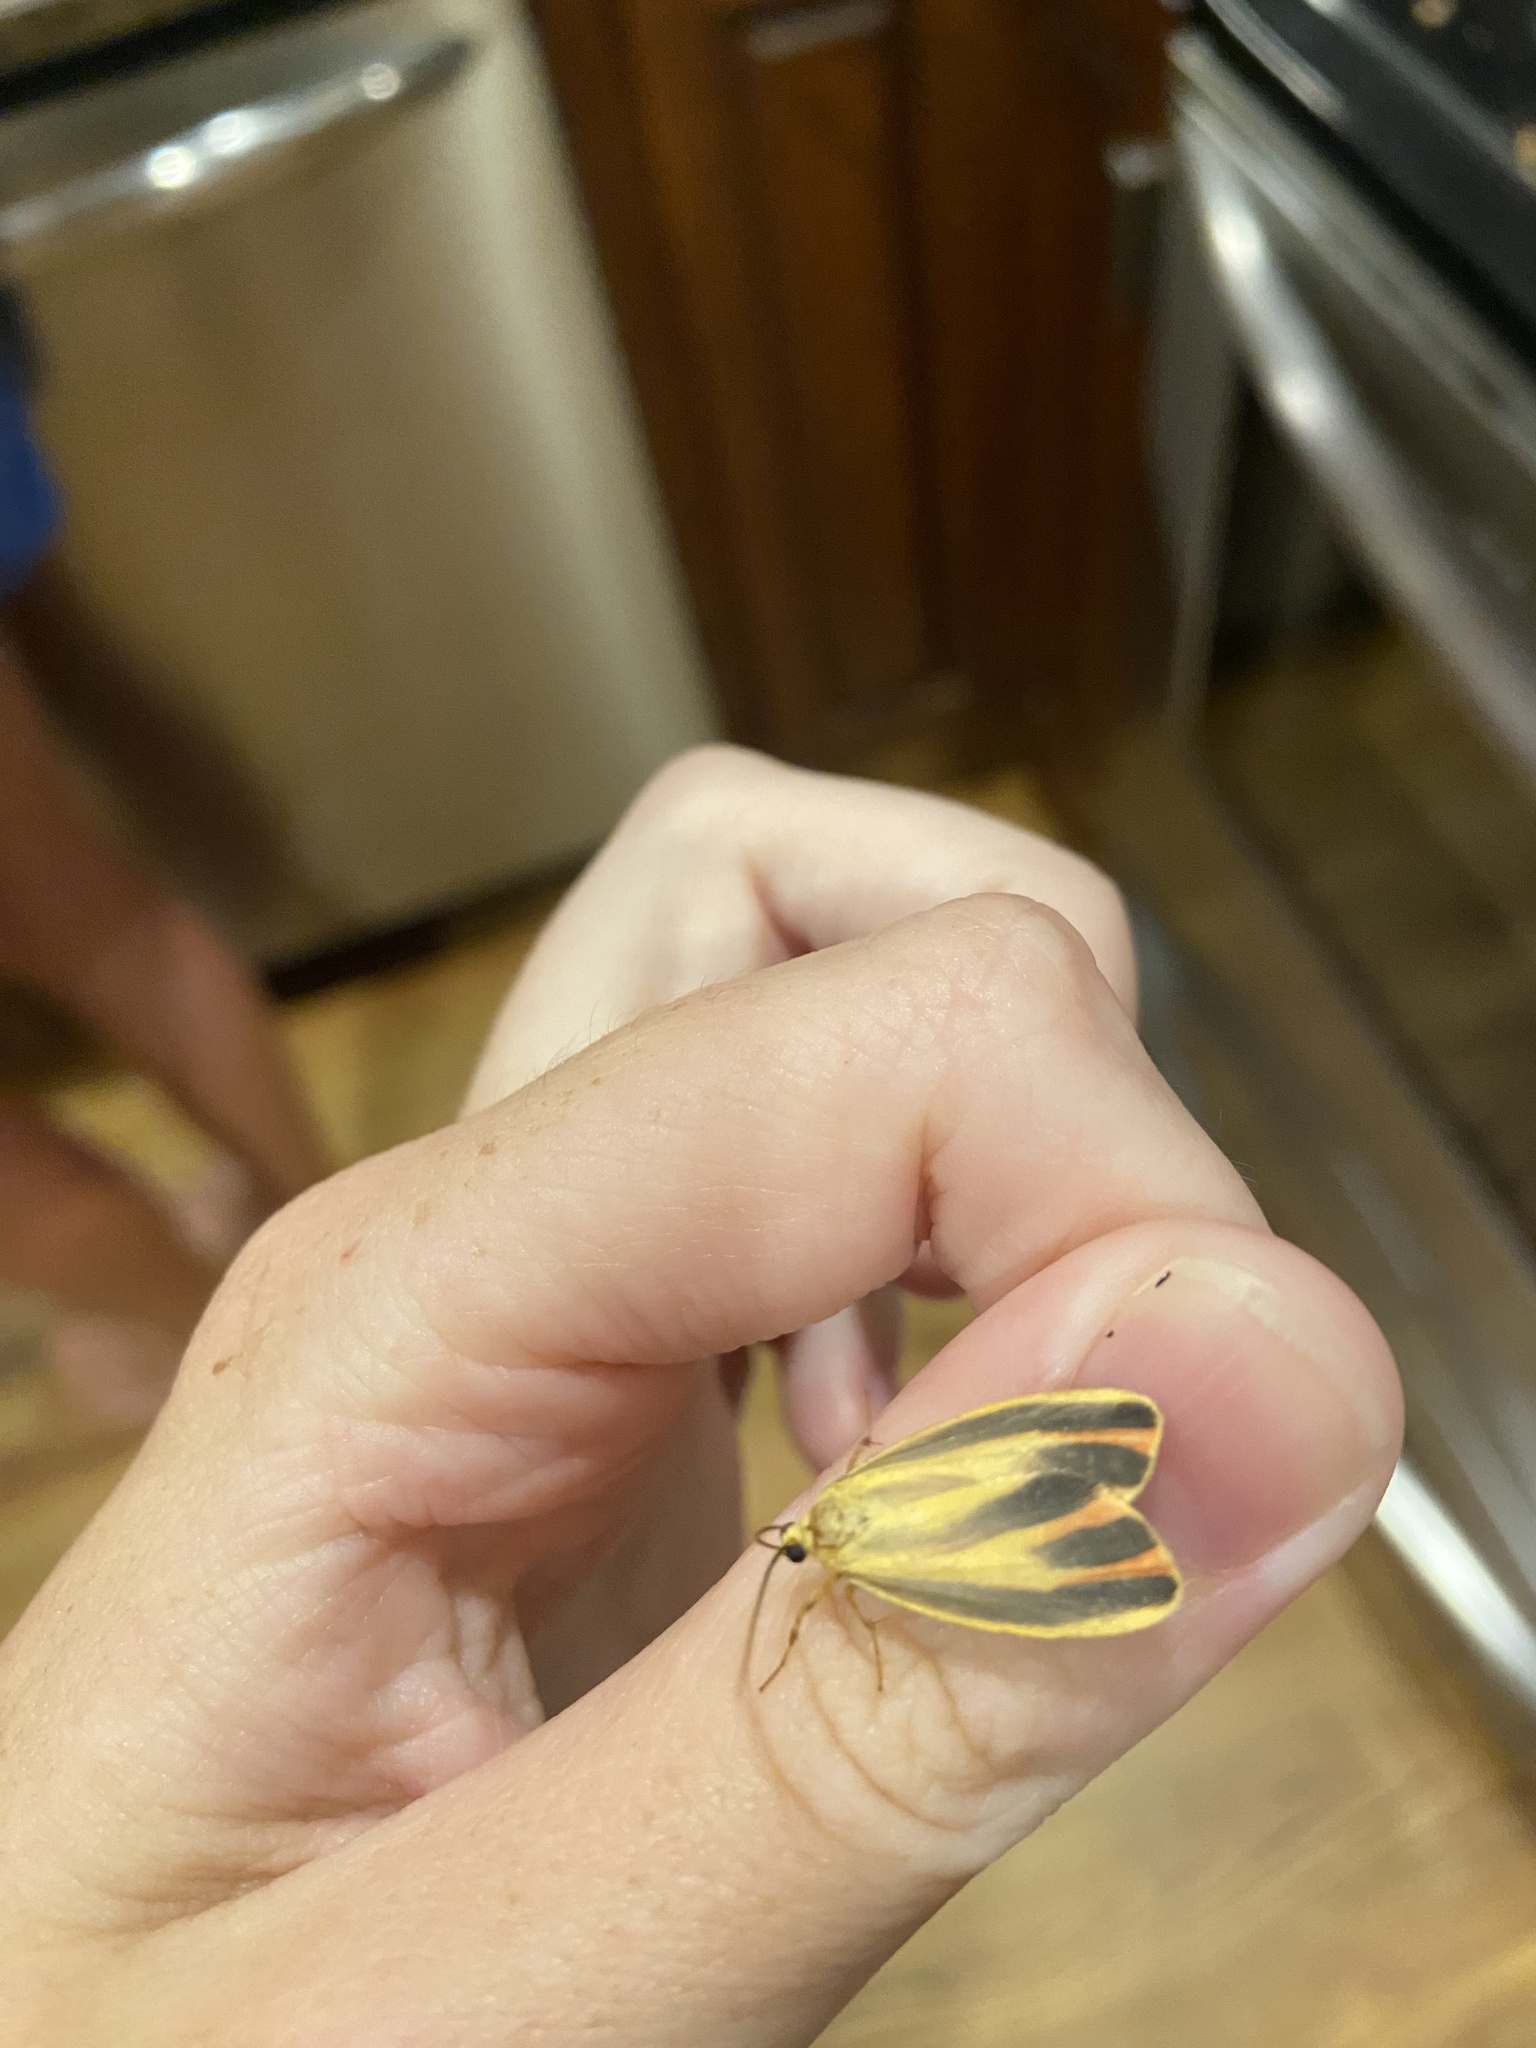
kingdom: Animalia
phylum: Arthropoda
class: Insecta
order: Lepidoptera
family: Erebidae
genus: Hypoprepia
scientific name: Hypoprepia fucosa
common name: Painted lichen moth
